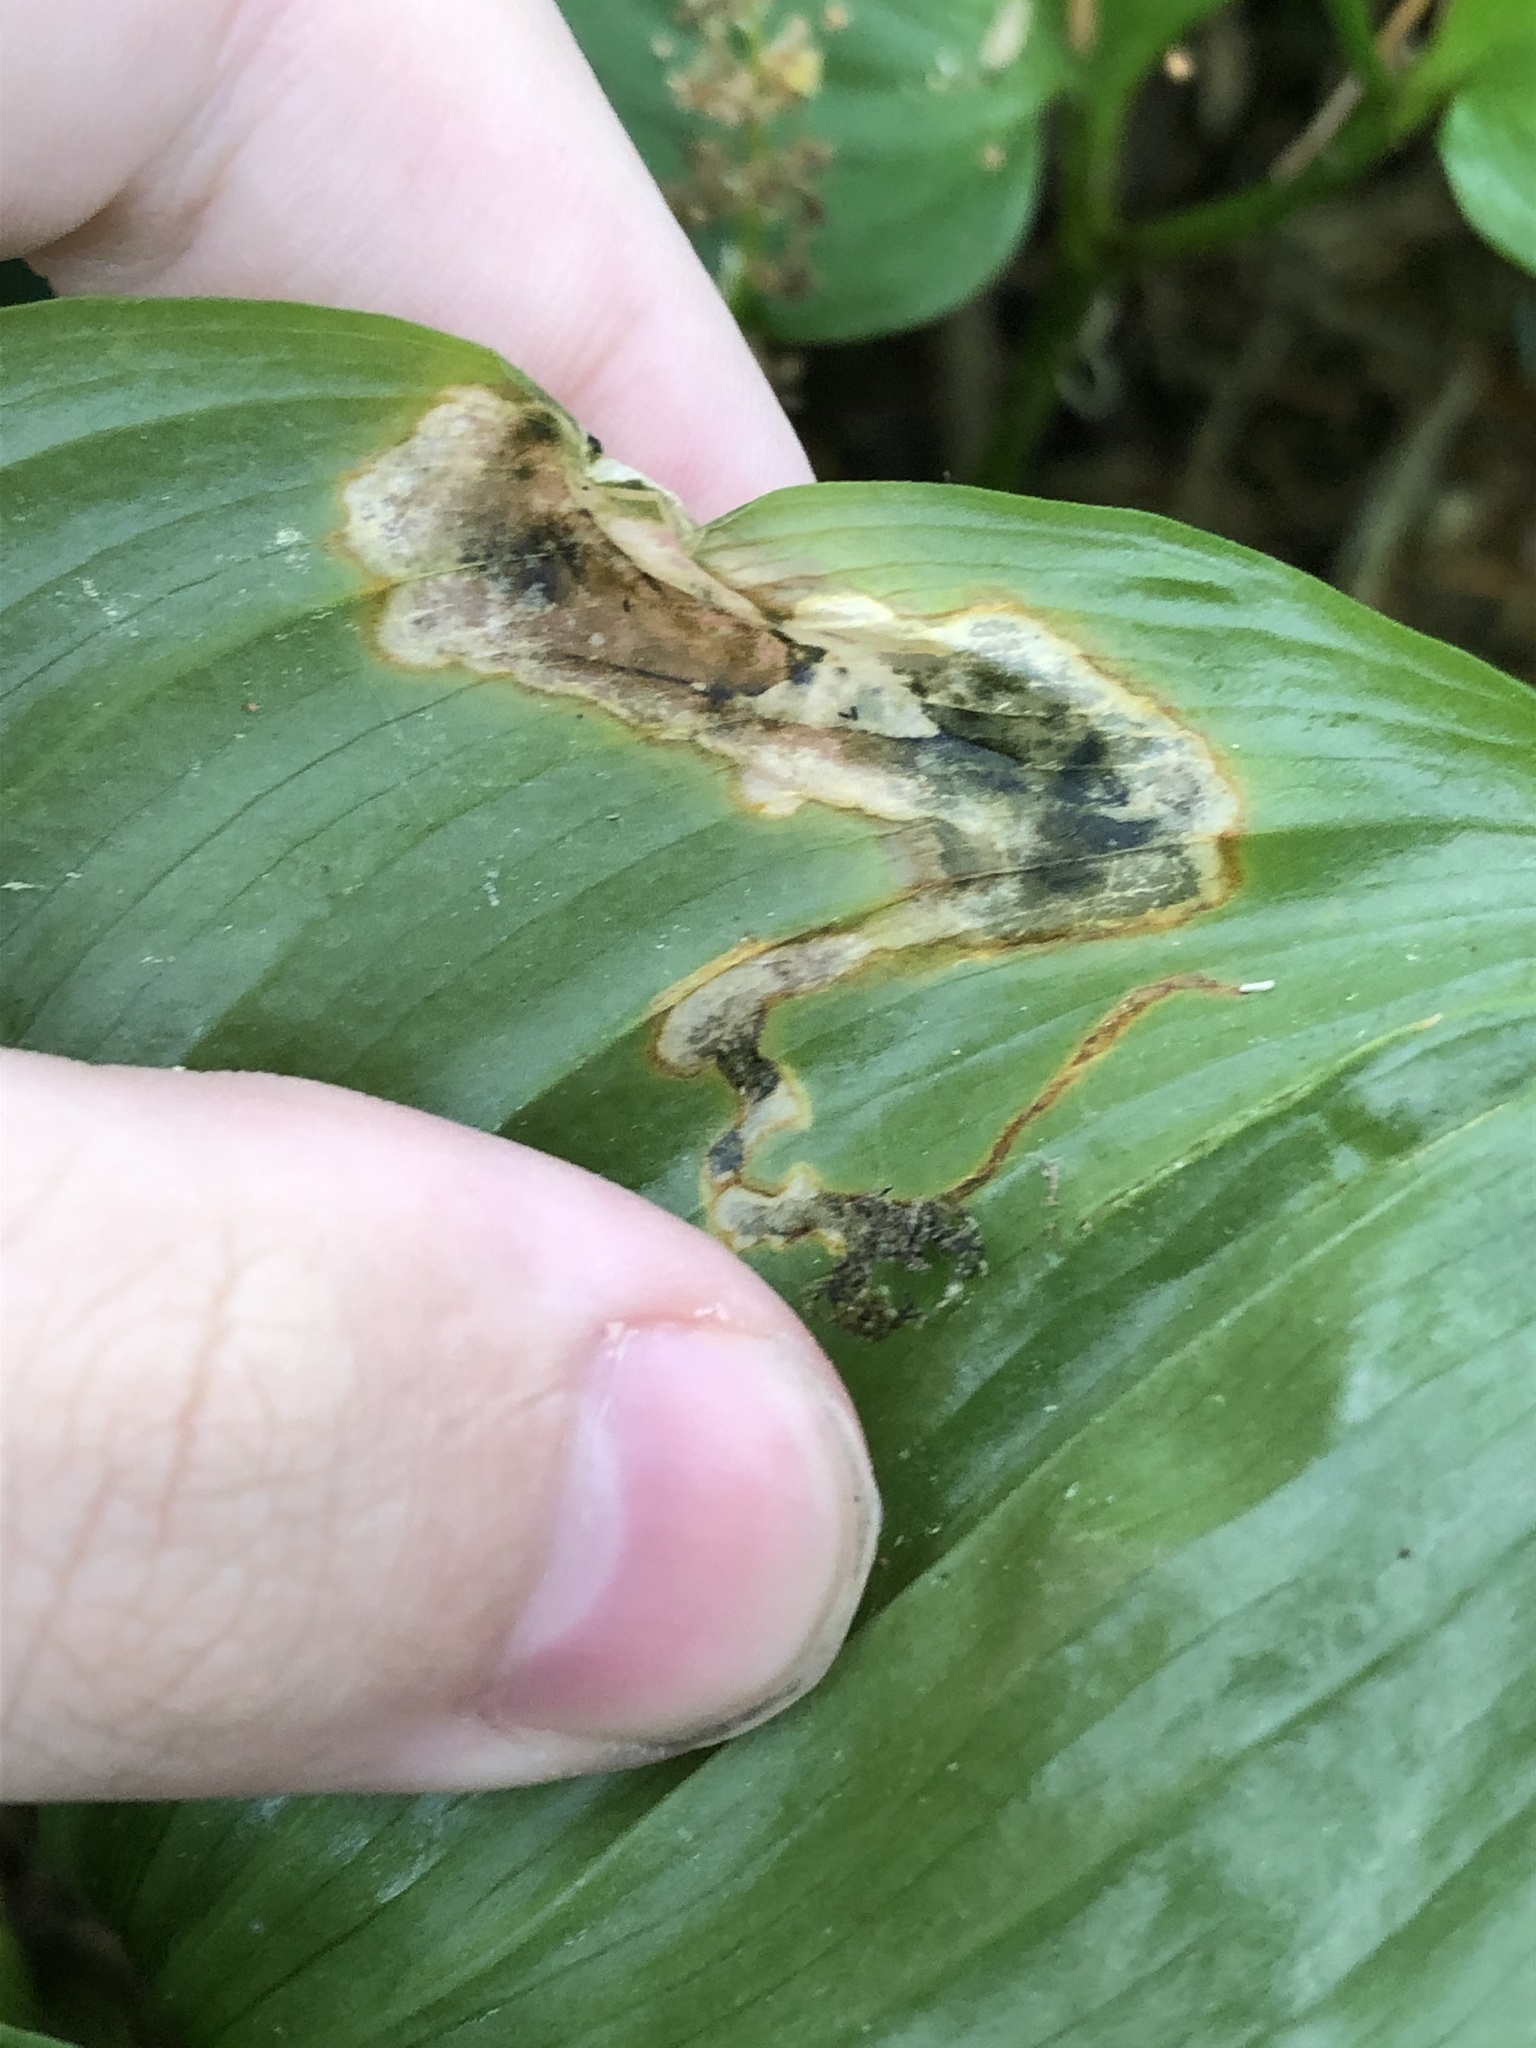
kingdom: Animalia
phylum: Arthropoda
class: Insecta
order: Diptera
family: Scathophagidae
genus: Leptopa
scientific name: Leptopa
